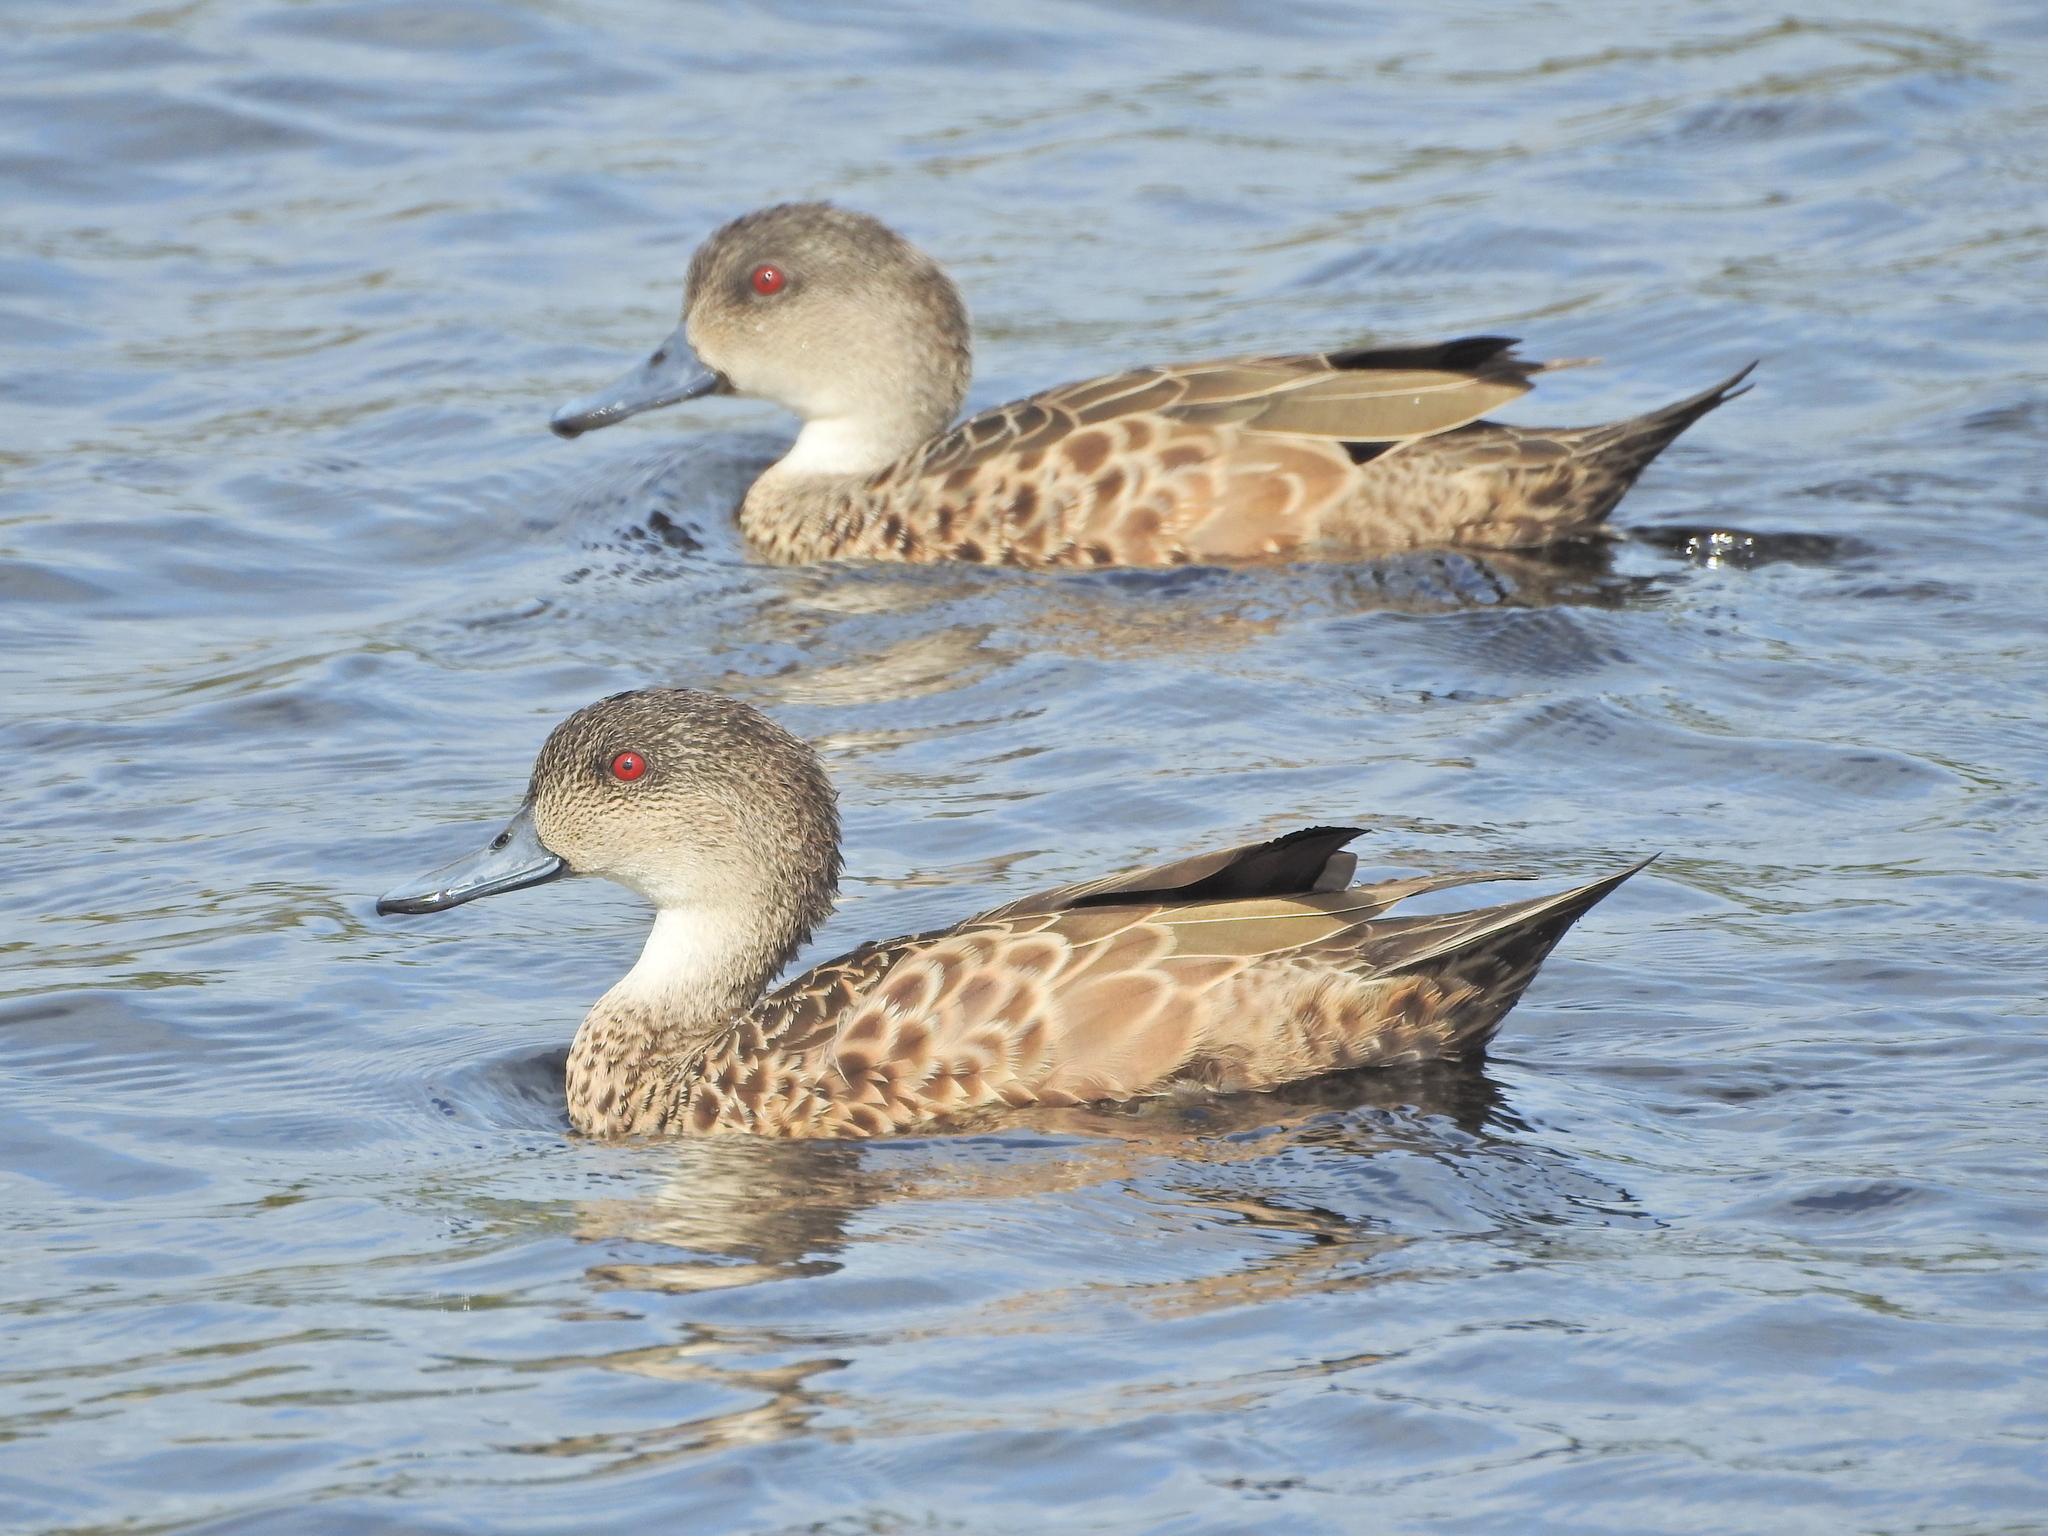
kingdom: Animalia
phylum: Chordata
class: Aves
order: Anseriformes
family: Anatidae
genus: Anas
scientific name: Anas gracilis
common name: Grey teal
